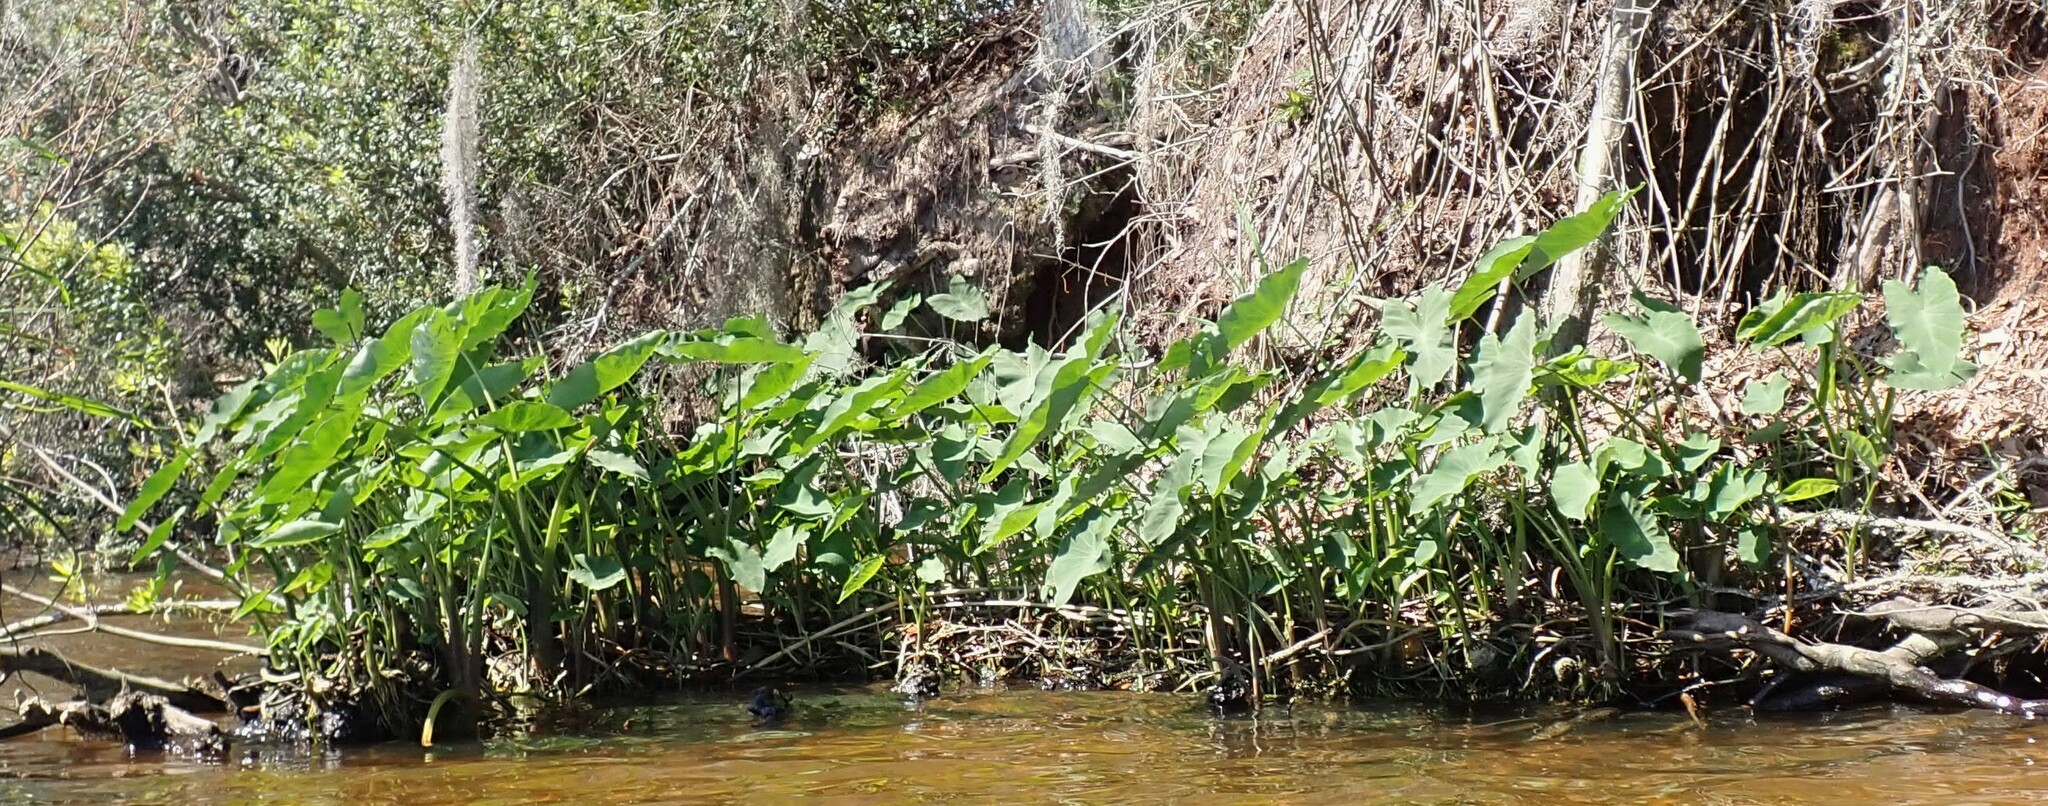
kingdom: Plantae
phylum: Tracheophyta
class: Liliopsida
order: Alismatales
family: Araceae
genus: Colocasia
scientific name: Colocasia esculenta
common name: Taro
